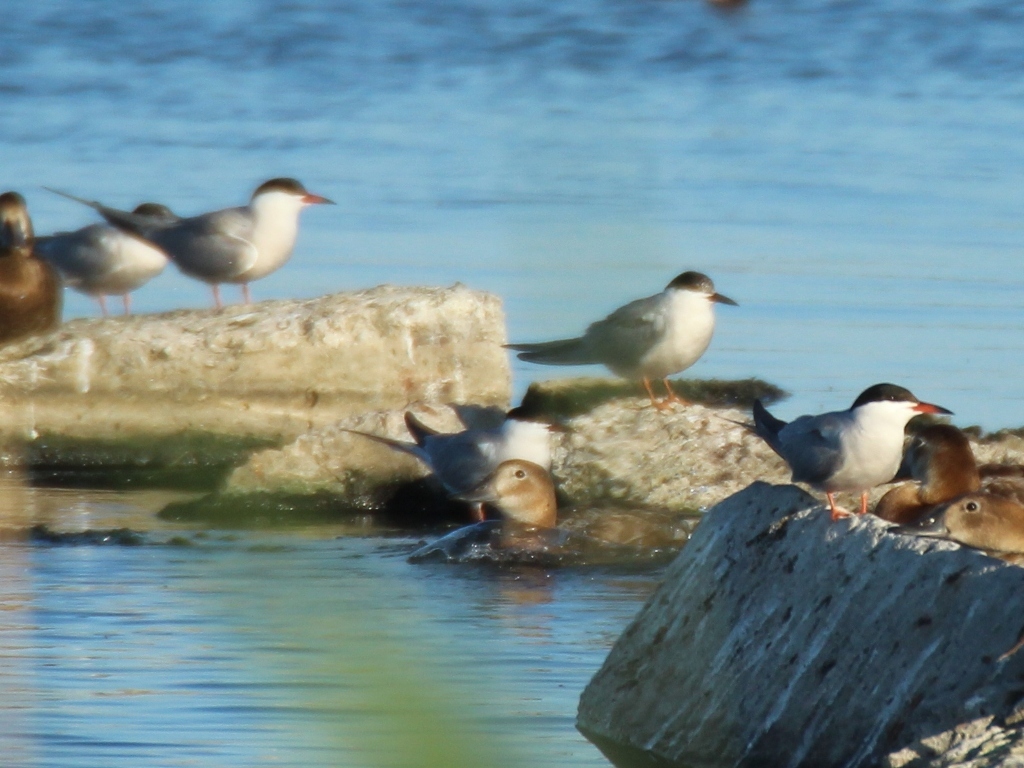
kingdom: Animalia
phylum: Chordata
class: Aves
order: Charadriiformes
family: Laridae
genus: Sterna
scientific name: Sterna hirundo
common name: Common tern
